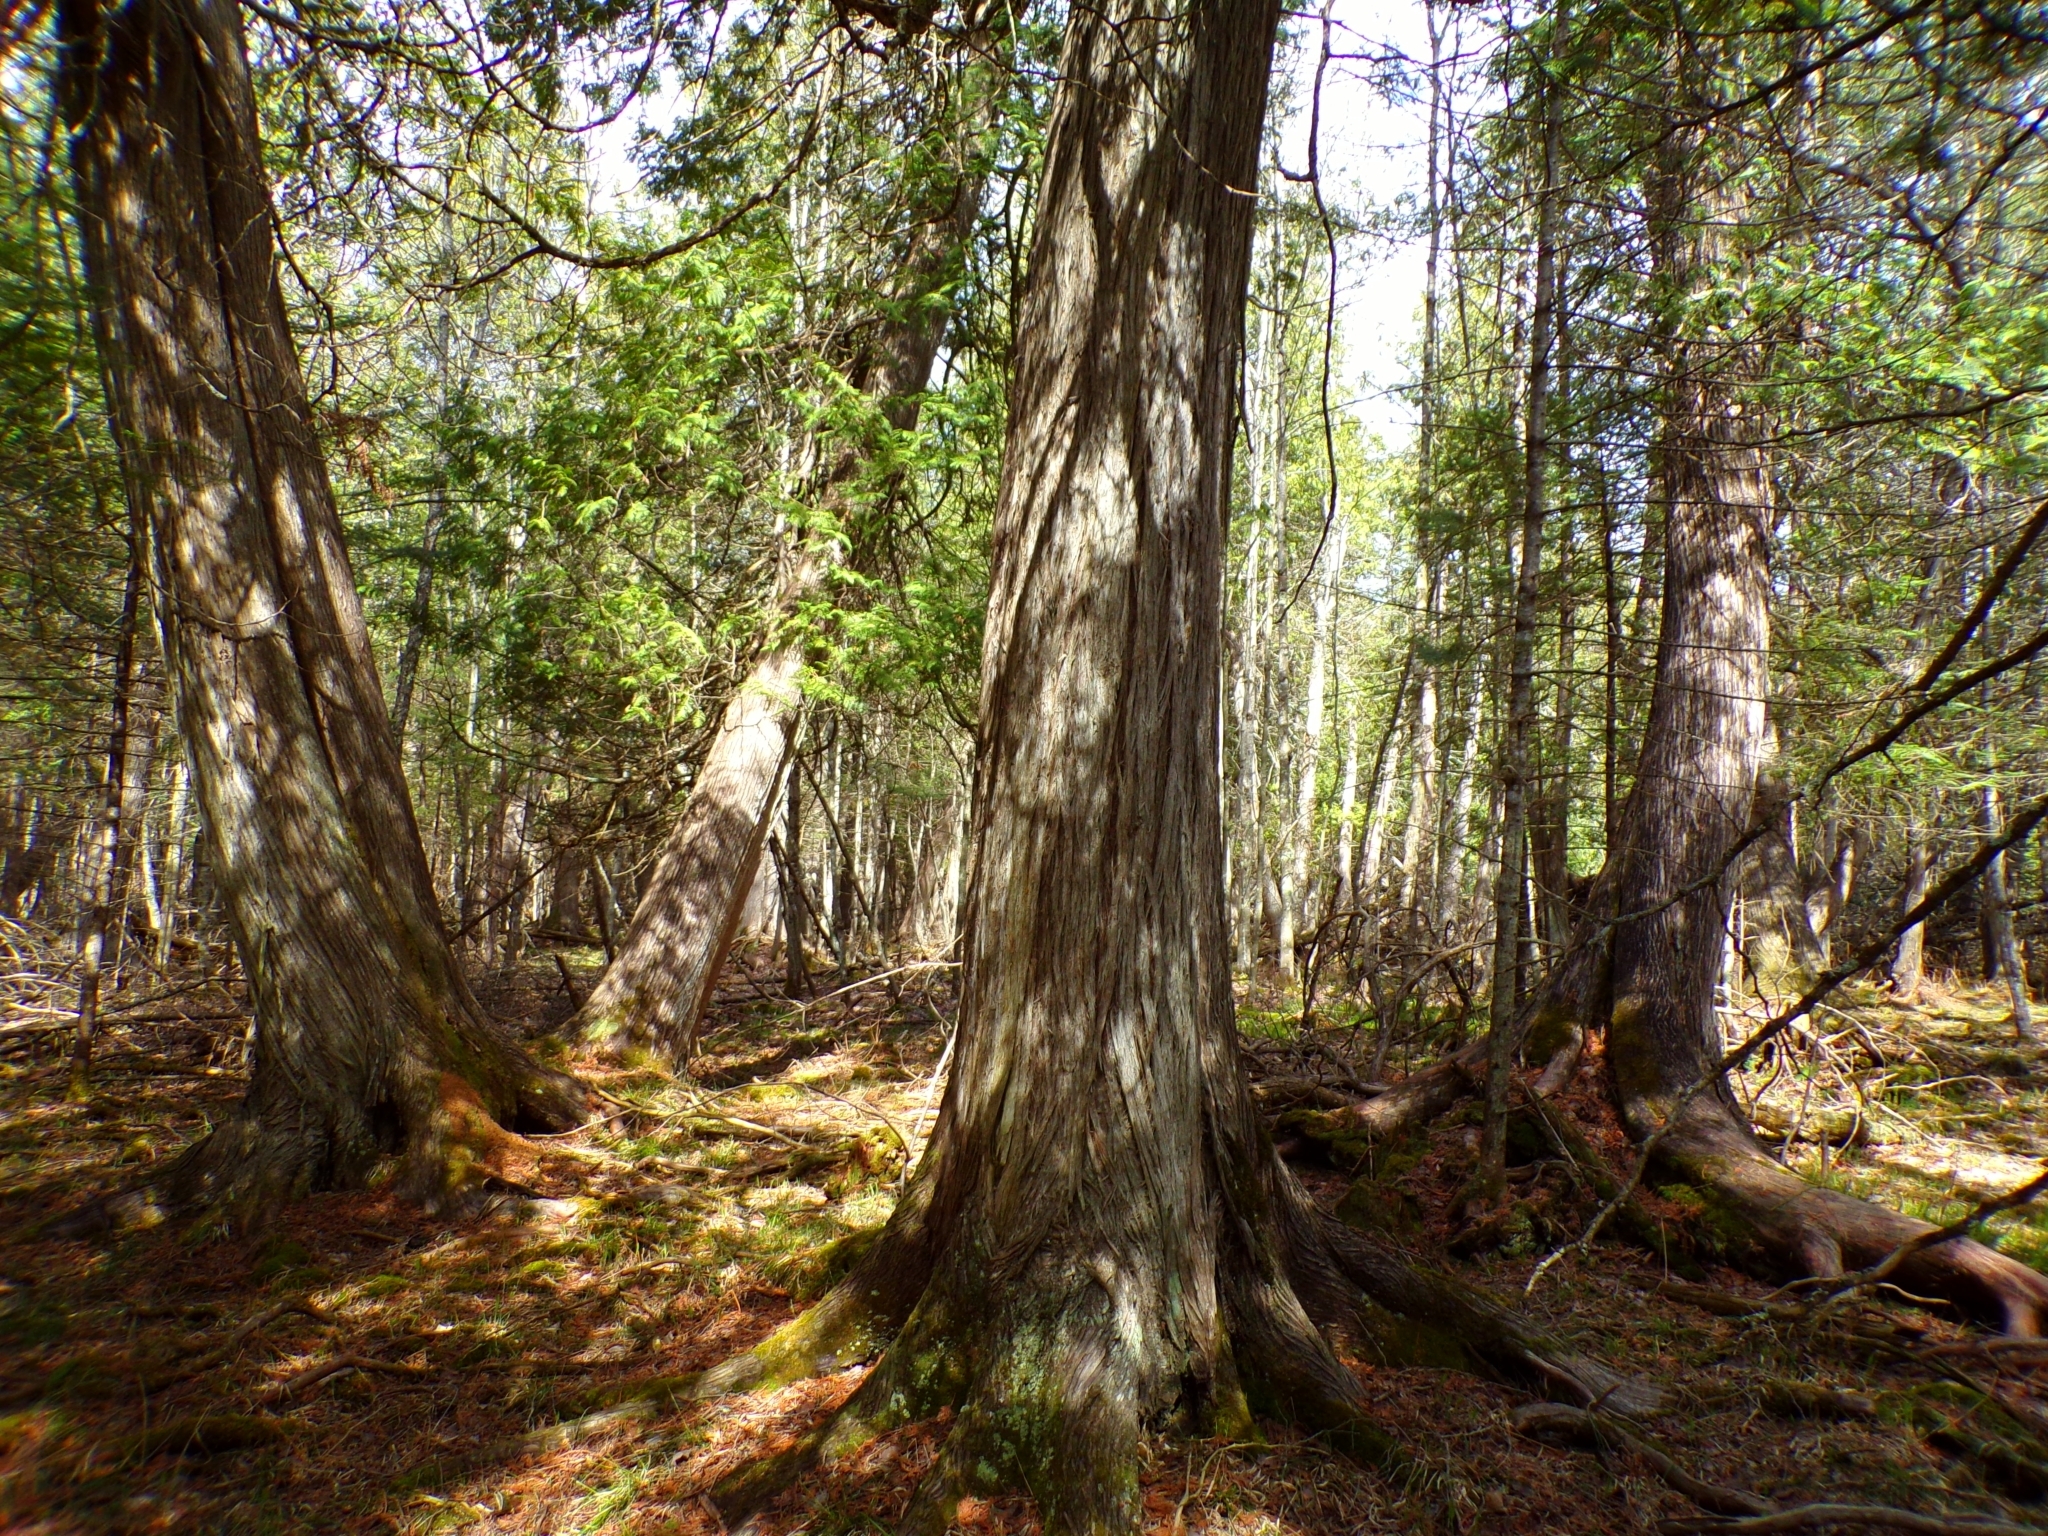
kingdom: Plantae
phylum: Tracheophyta
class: Pinopsida
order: Pinales
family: Cupressaceae
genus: Thuja
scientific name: Thuja occidentalis
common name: Northern white-cedar
